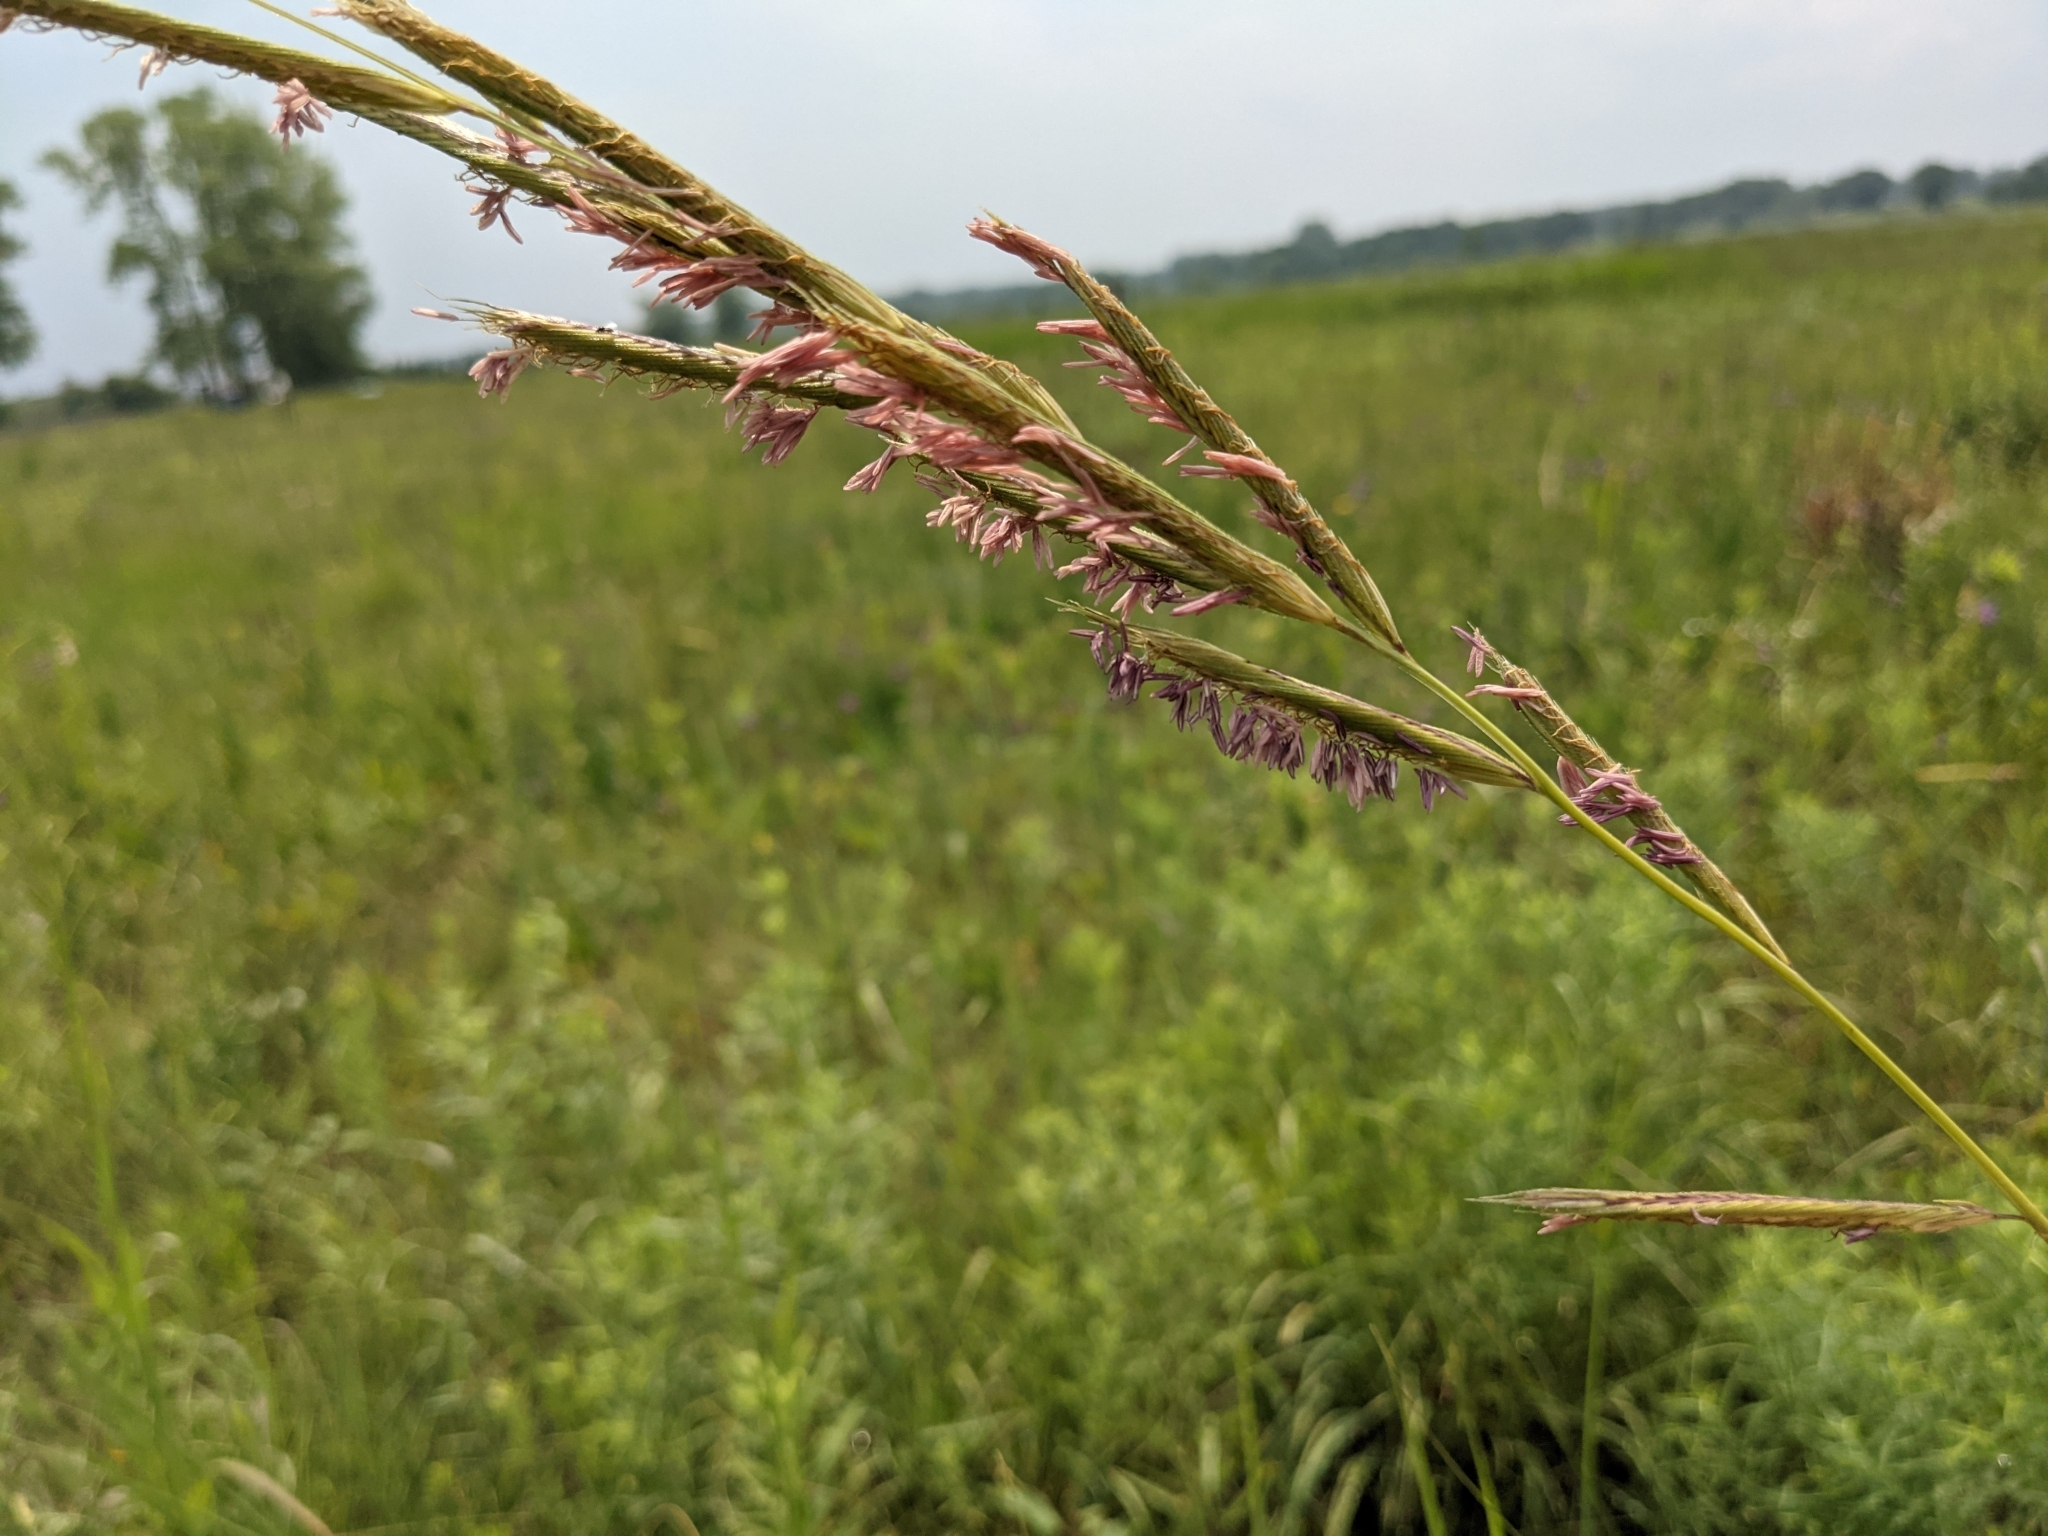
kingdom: Plantae
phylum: Tracheophyta
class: Liliopsida
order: Poales
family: Poaceae
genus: Sporobolus
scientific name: Sporobolus michauxianus
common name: Freshwater cordgrass
